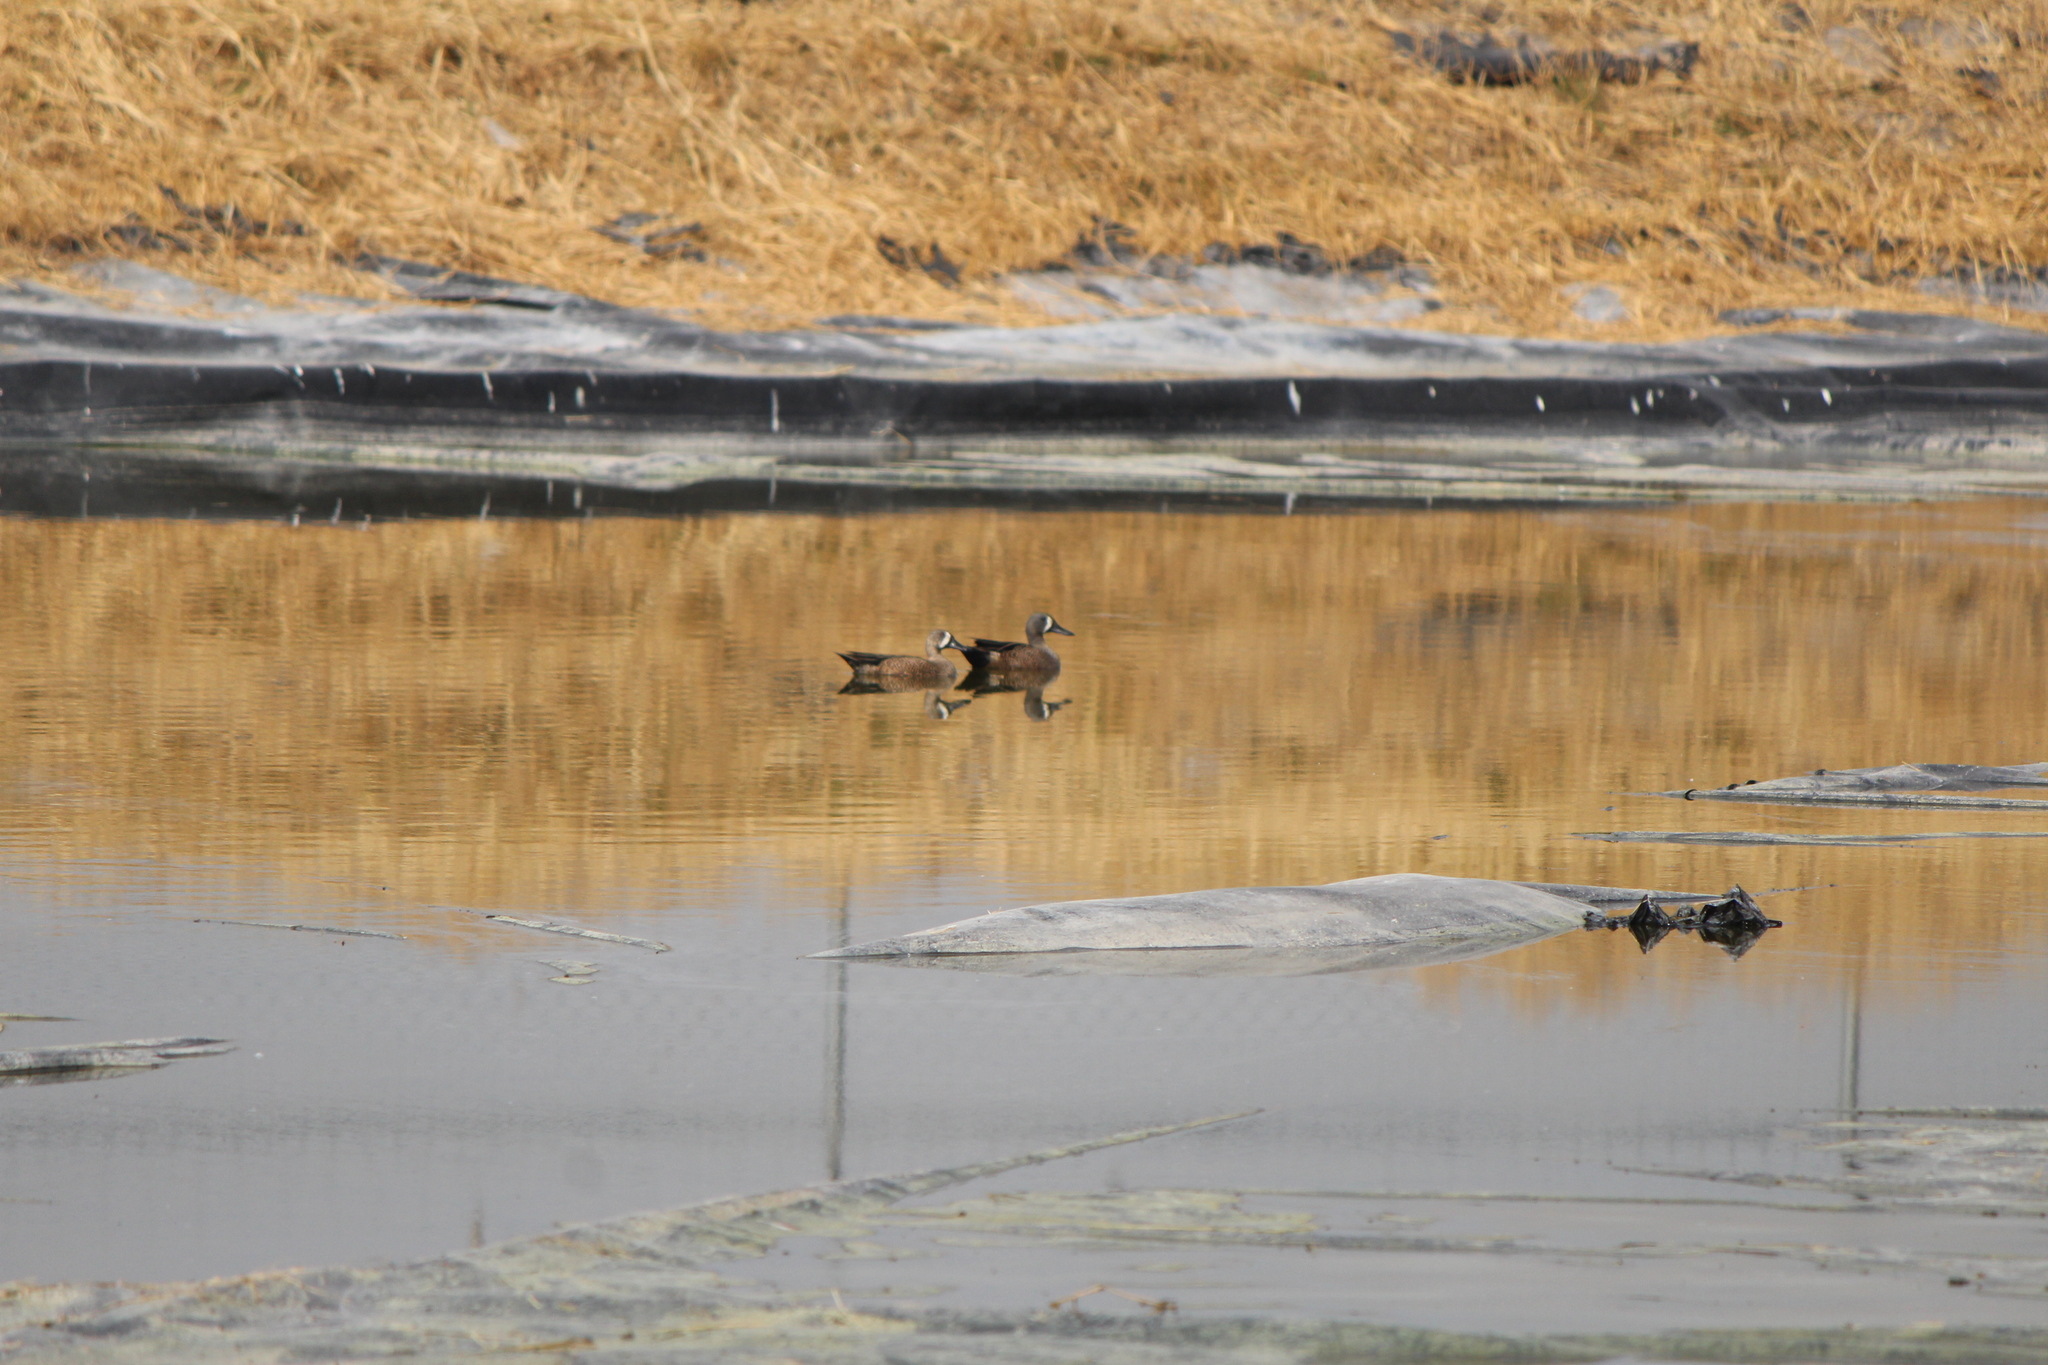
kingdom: Animalia
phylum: Chordata
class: Aves
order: Anseriformes
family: Anatidae
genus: Spatula
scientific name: Spatula discors
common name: Blue-winged teal
